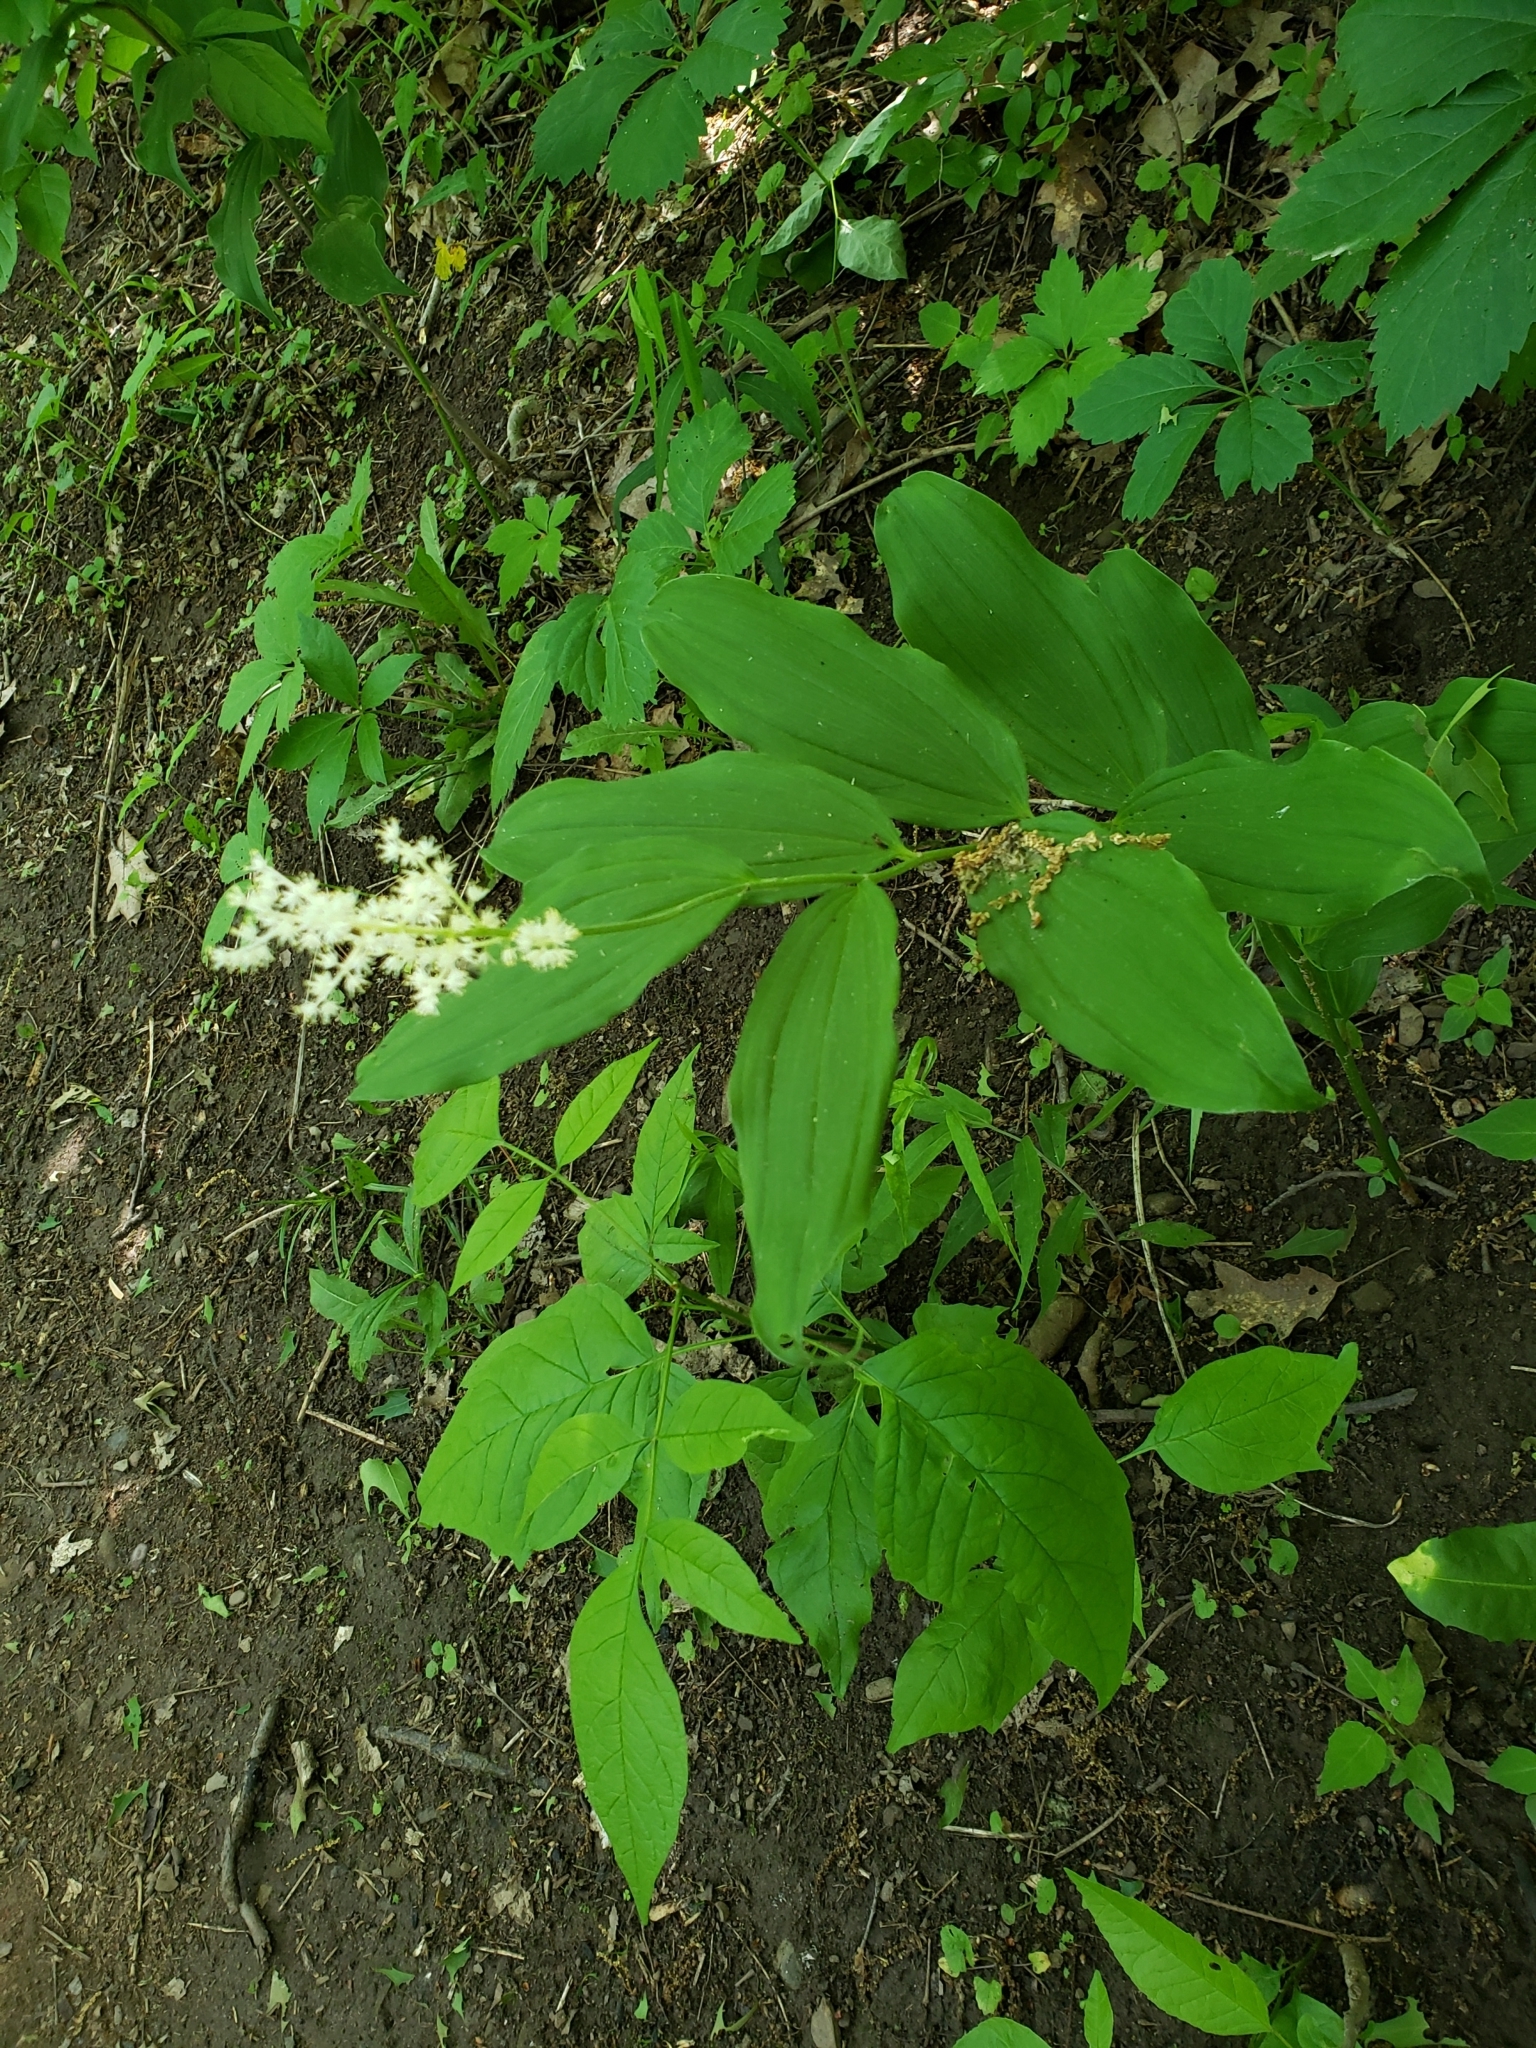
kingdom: Plantae
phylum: Tracheophyta
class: Liliopsida
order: Asparagales
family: Asparagaceae
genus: Maianthemum
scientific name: Maianthemum racemosum
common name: False spikenard
